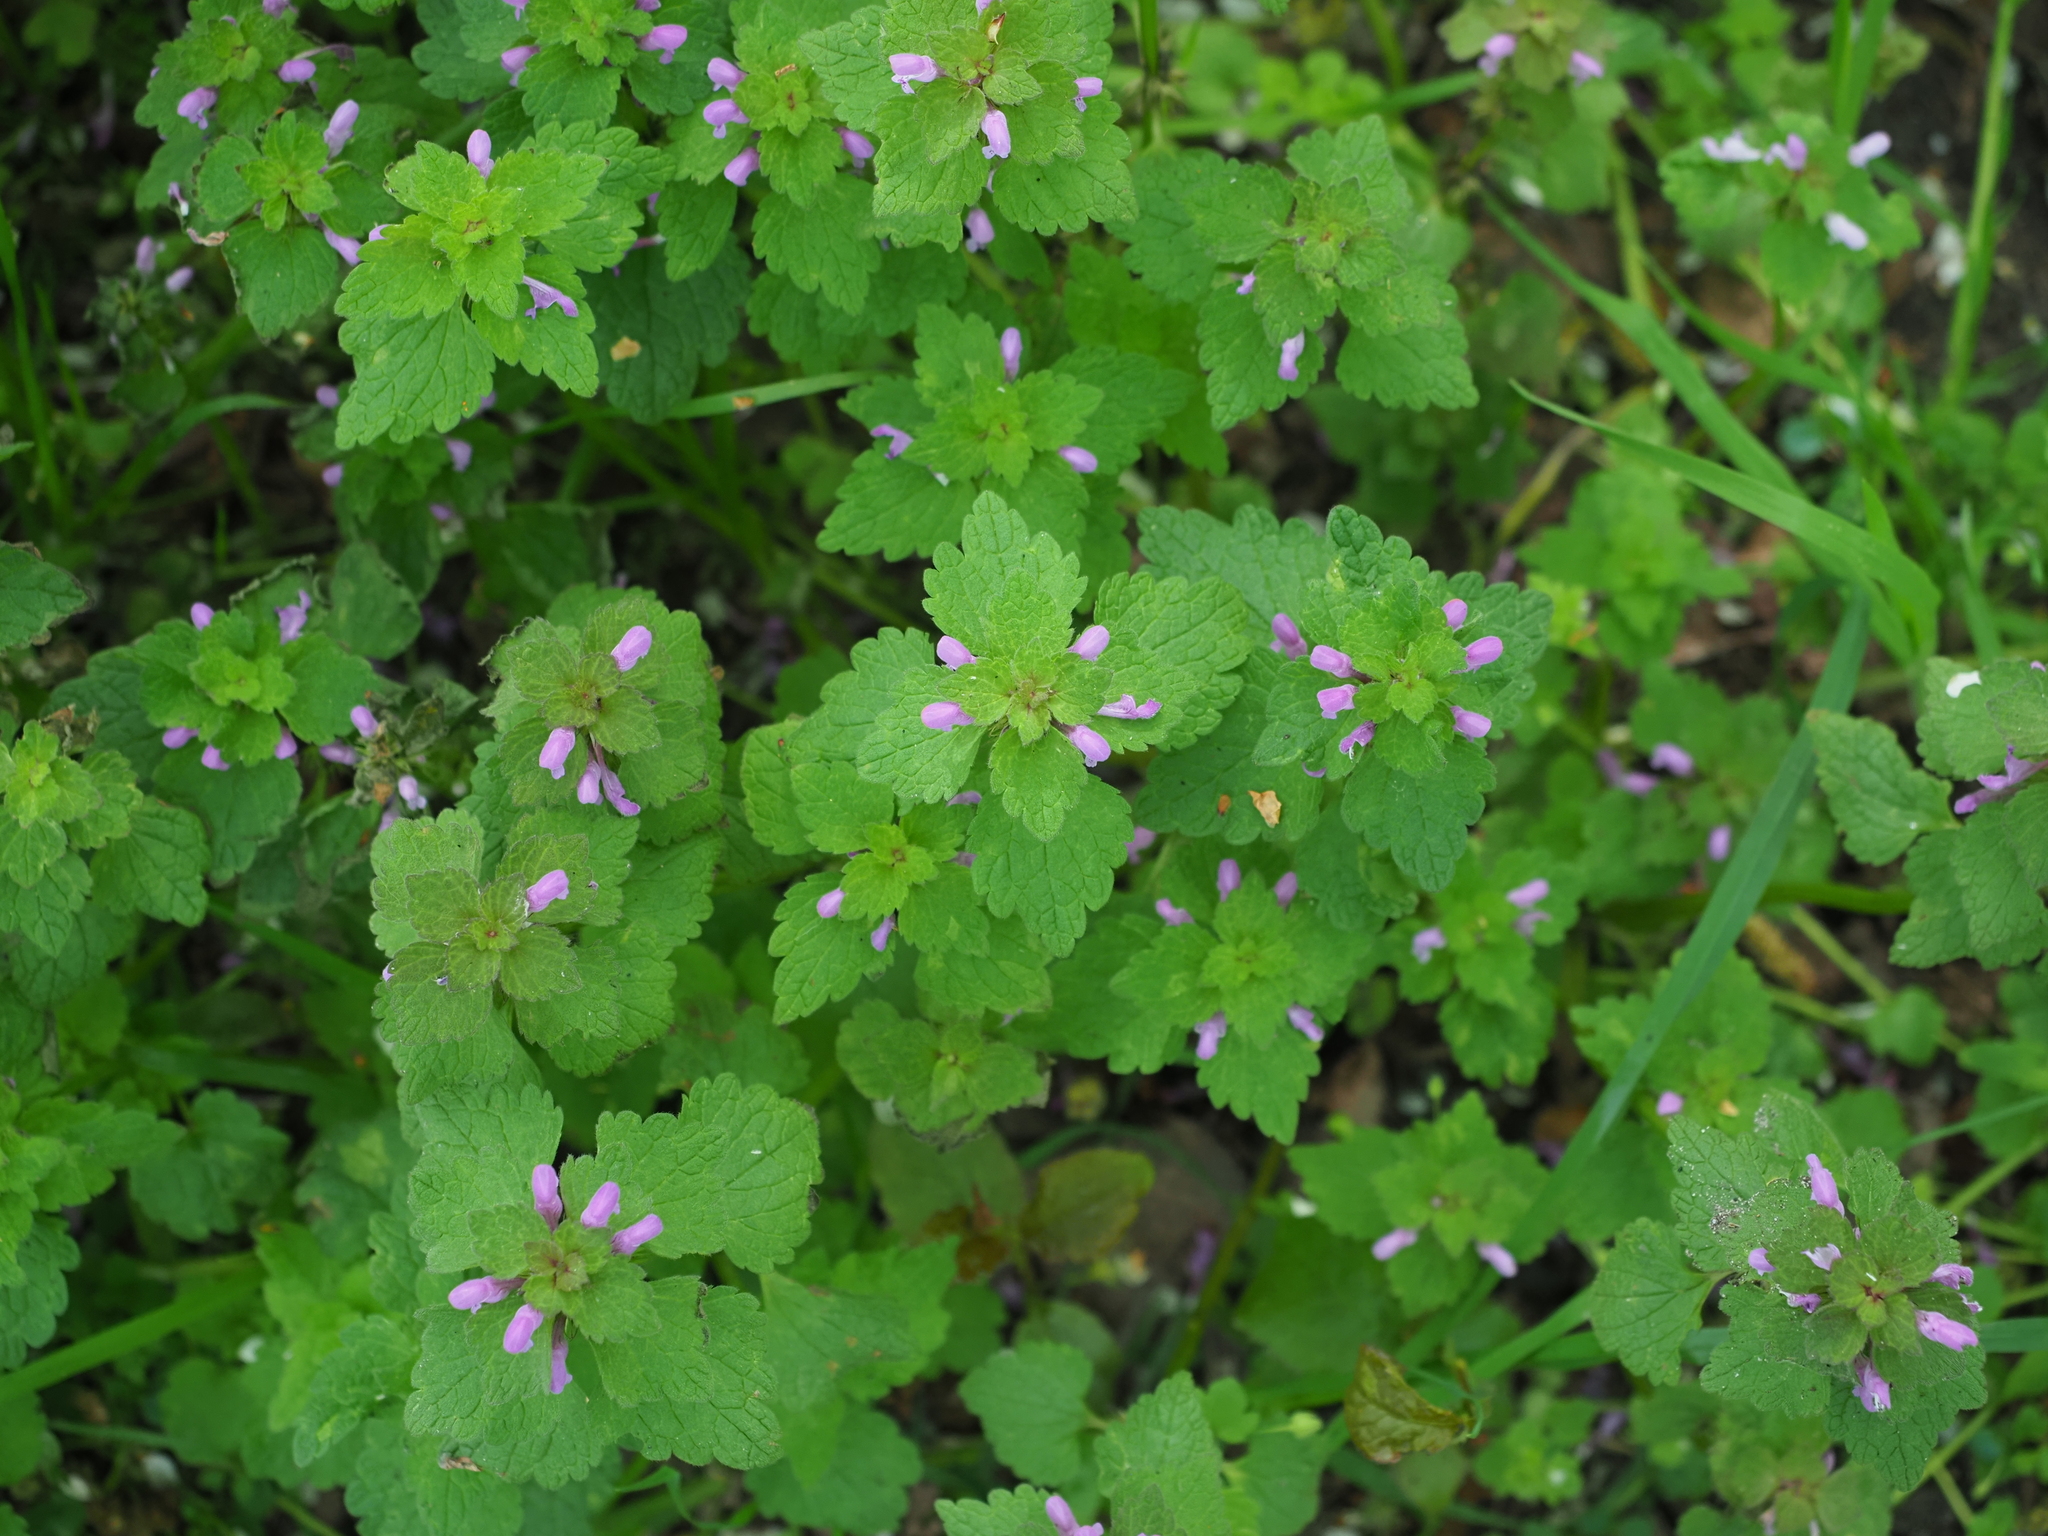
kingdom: Plantae
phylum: Tracheophyta
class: Magnoliopsida
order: Lamiales
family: Lamiaceae
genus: Lamium
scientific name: Lamium purpureum
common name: Red dead-nettle
